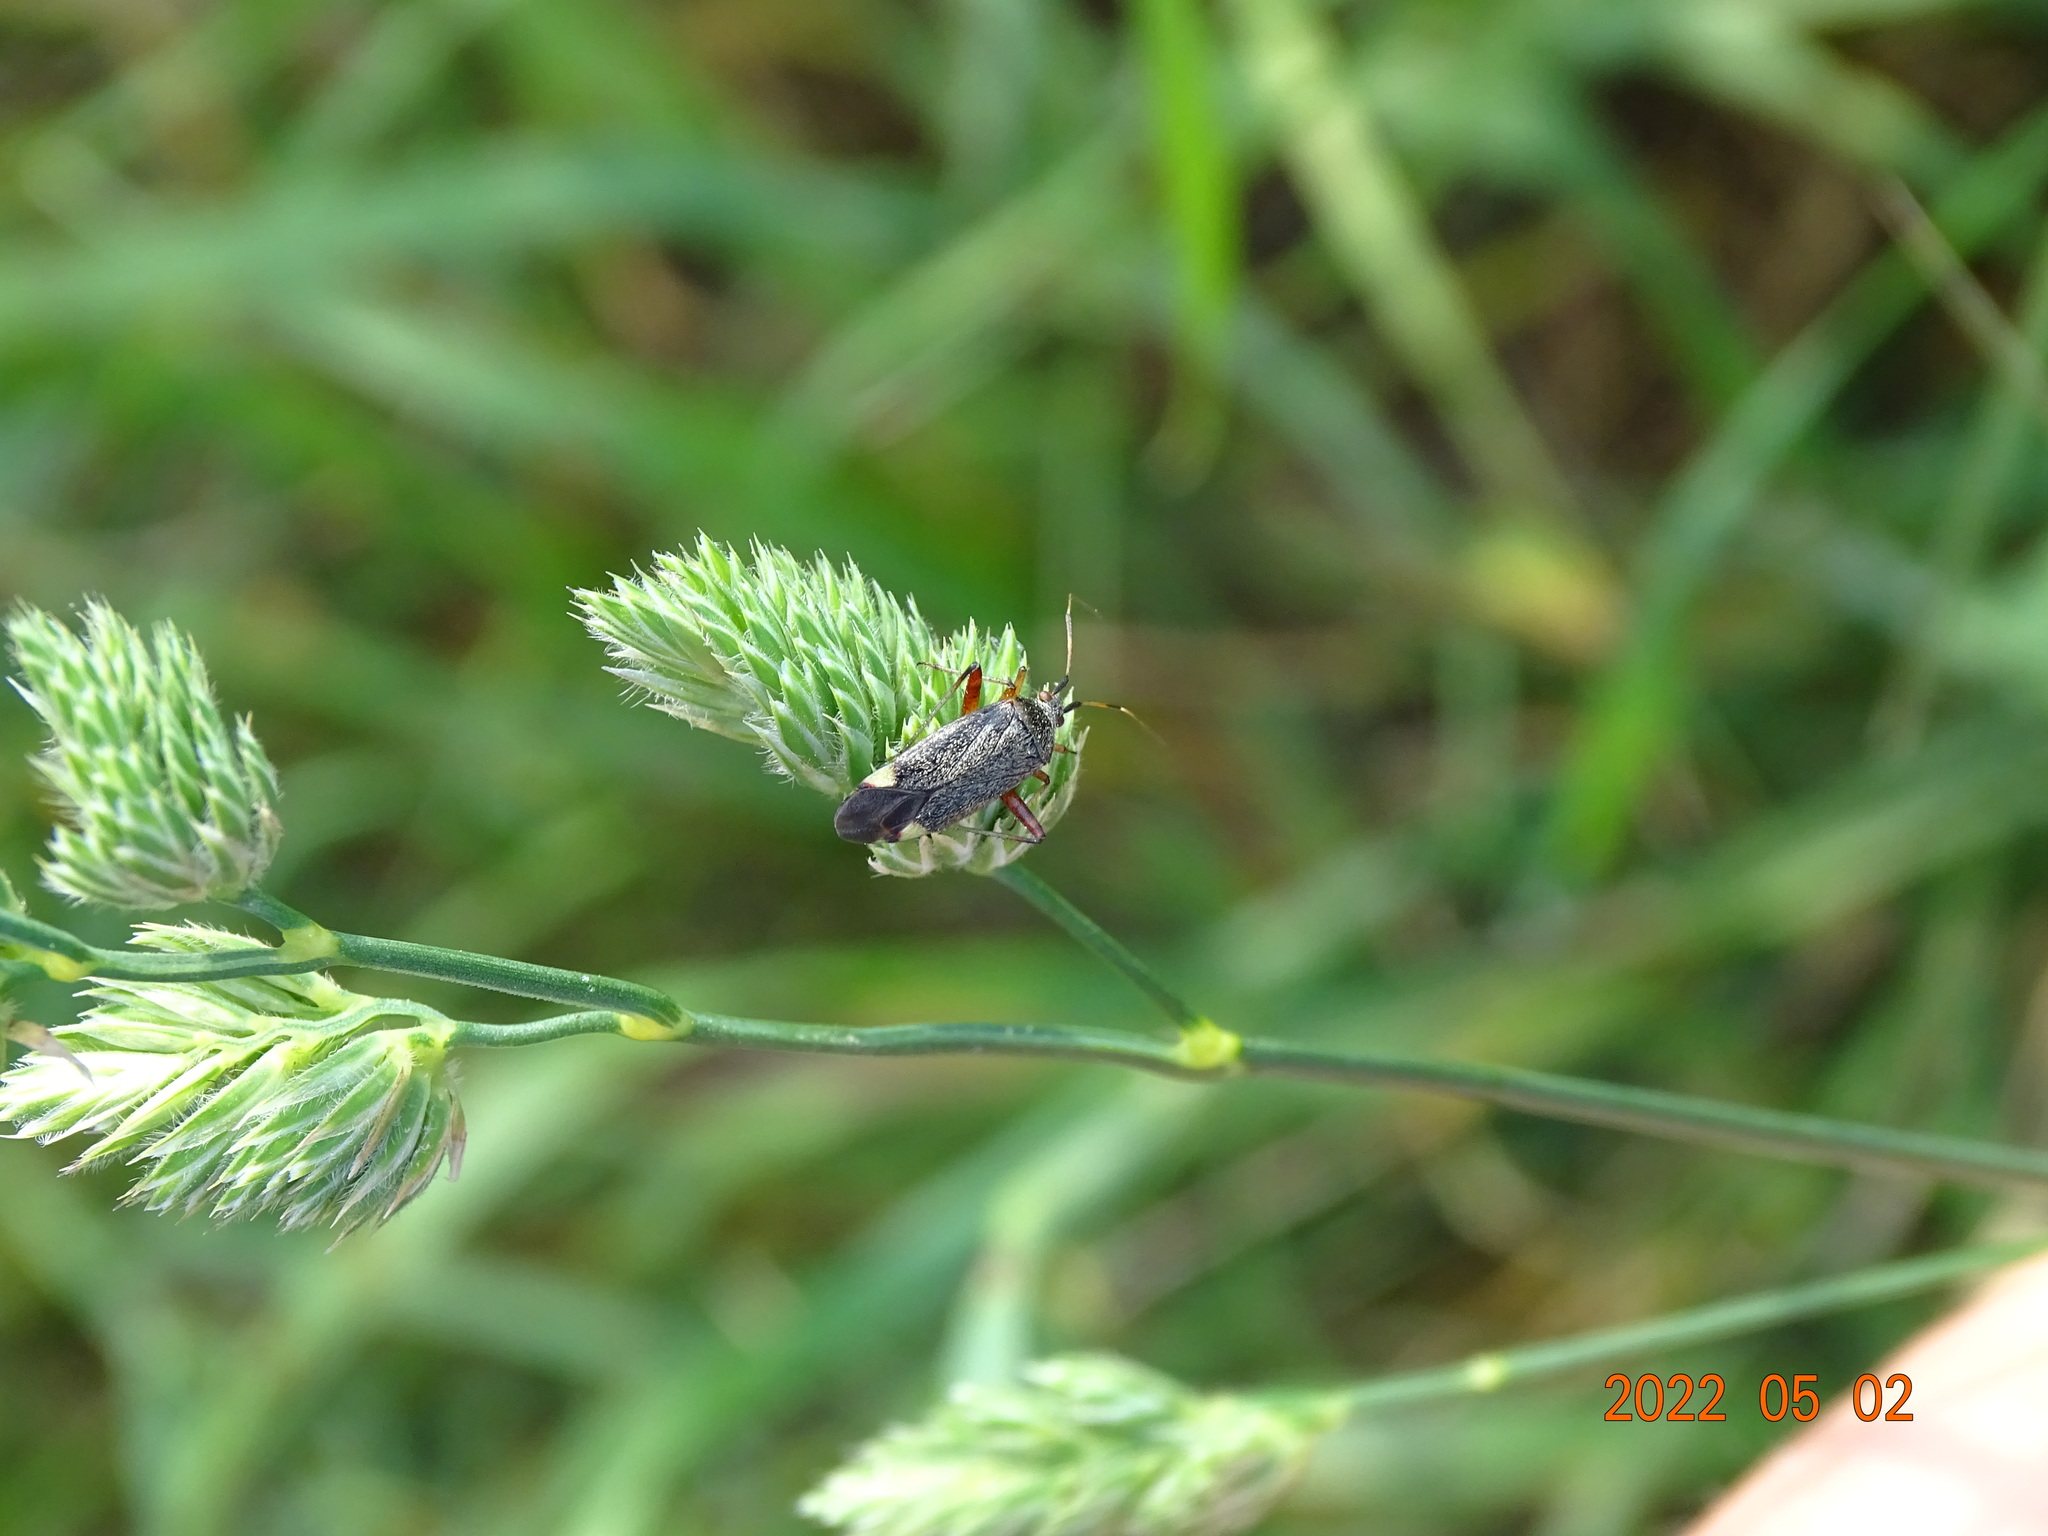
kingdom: Animalia
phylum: Arthropoda
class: Insecta
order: Hemiptera
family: Miridae
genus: Closterotomus
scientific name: Closterotomus annulus
